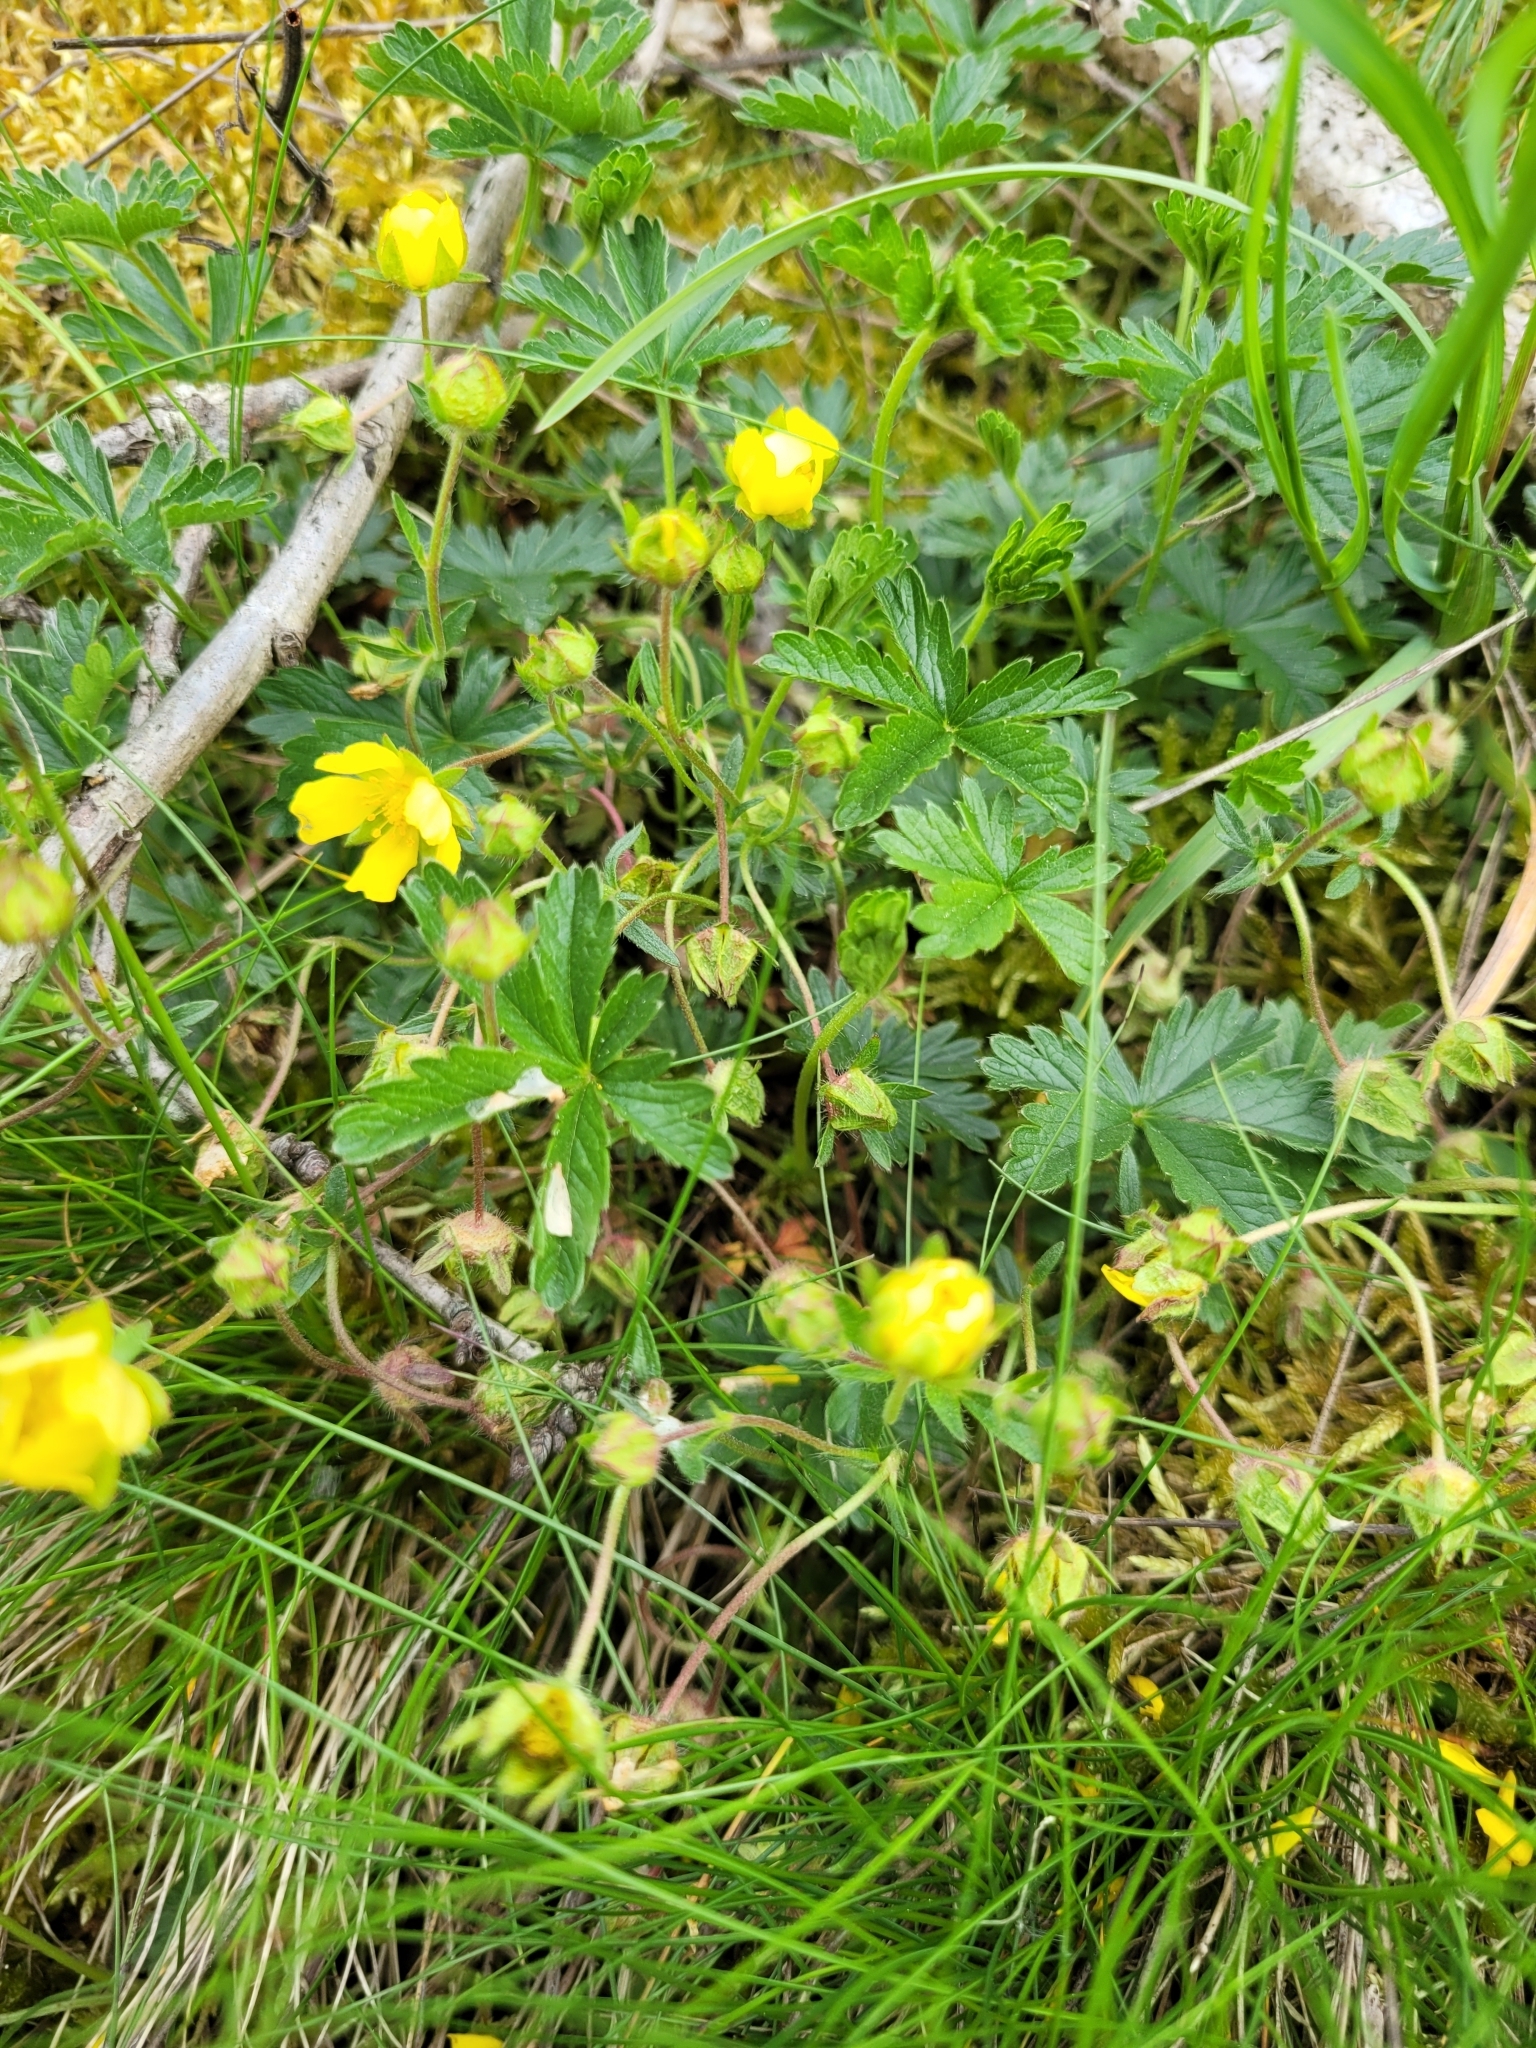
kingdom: Plantae
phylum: Tracheophyta
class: Magnoliopsida
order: Rosales
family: Rosaceae
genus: Potentilla
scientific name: Potentilla verna
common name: Spring cinquefoil
